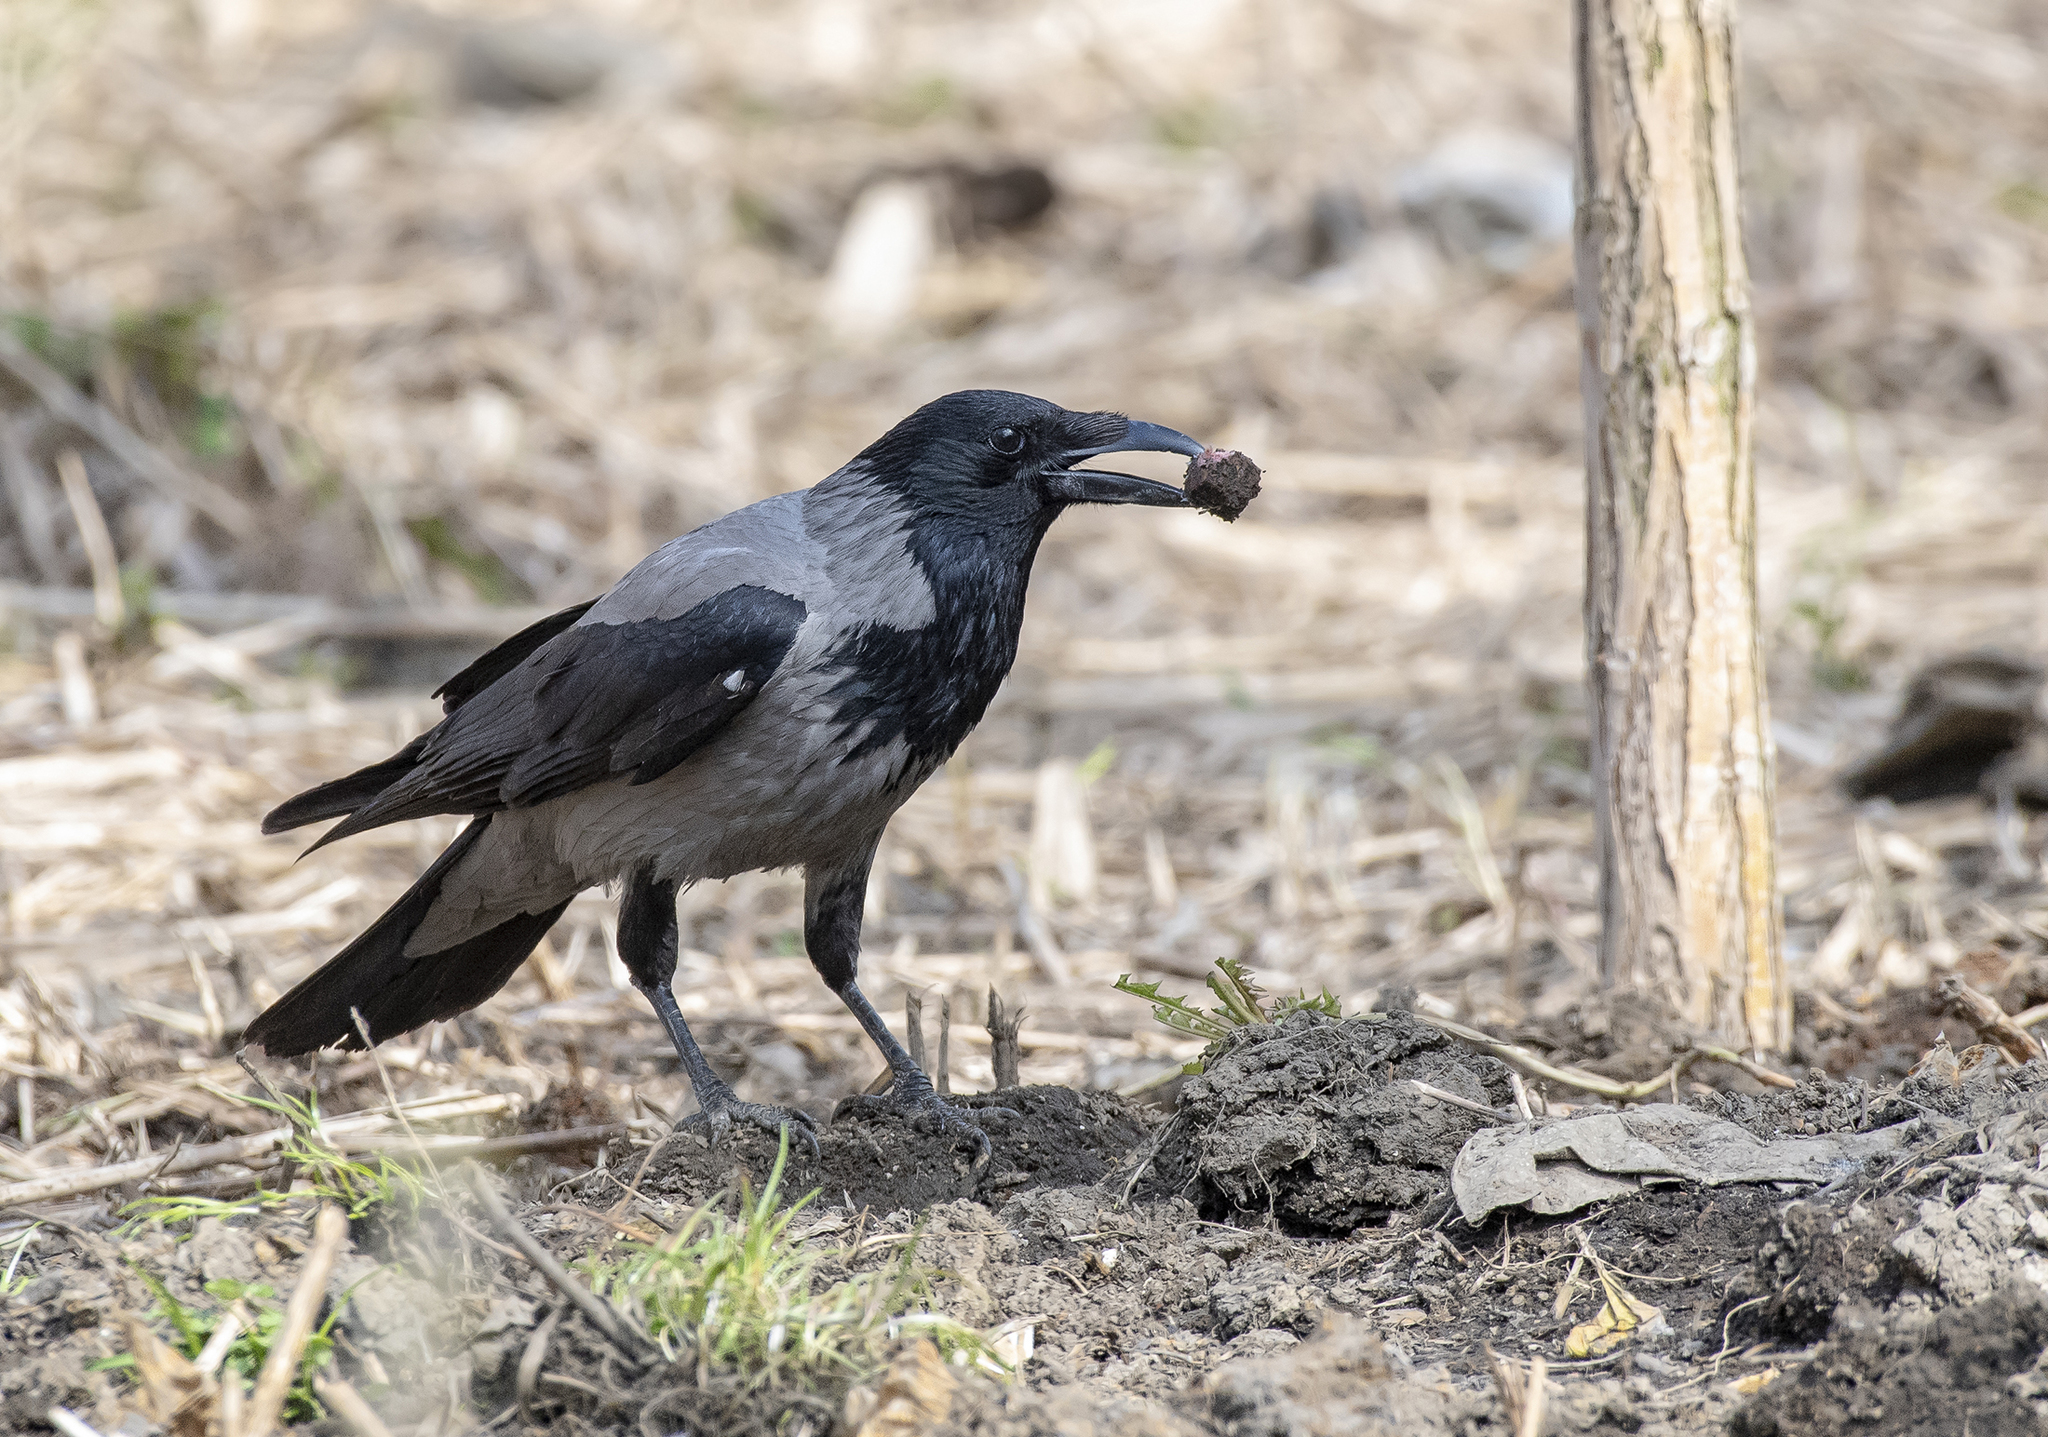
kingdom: Animalia
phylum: Chordata
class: Aves
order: Passeriformes
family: Corvidae
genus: Corvus
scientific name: Corvus cornix
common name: Hooded crow
